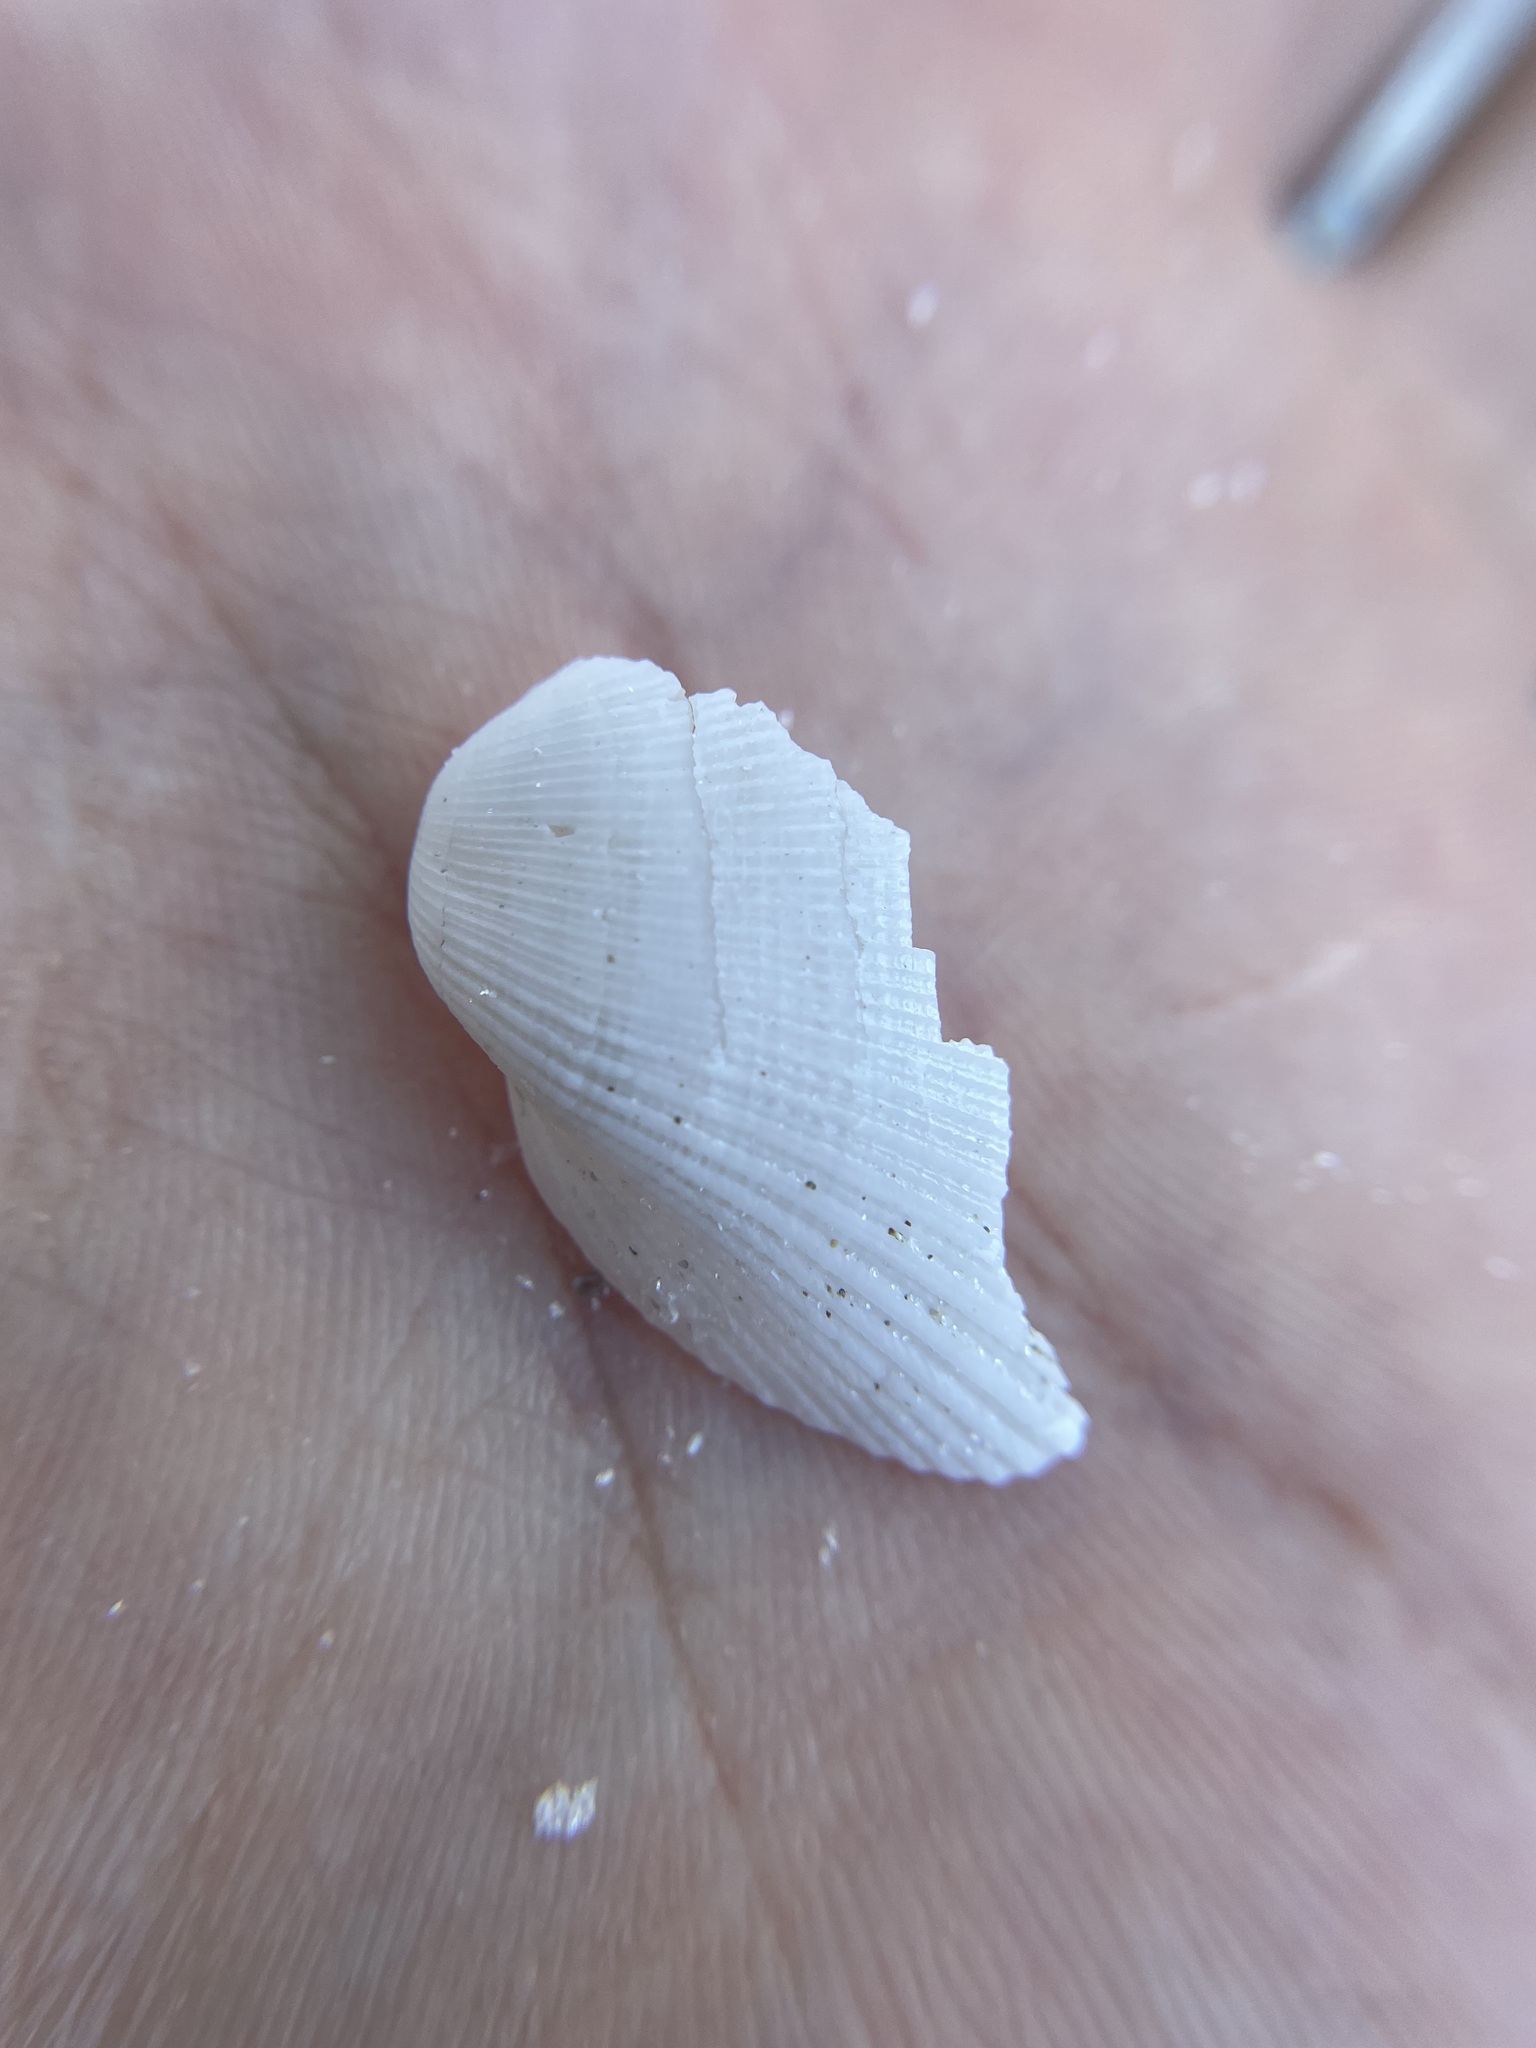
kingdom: Animalia
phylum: Mollusca
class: Bivalvia
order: Arcida
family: Arcidae
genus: Fugleria
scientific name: Fugleria tenera
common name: Delicate ark
